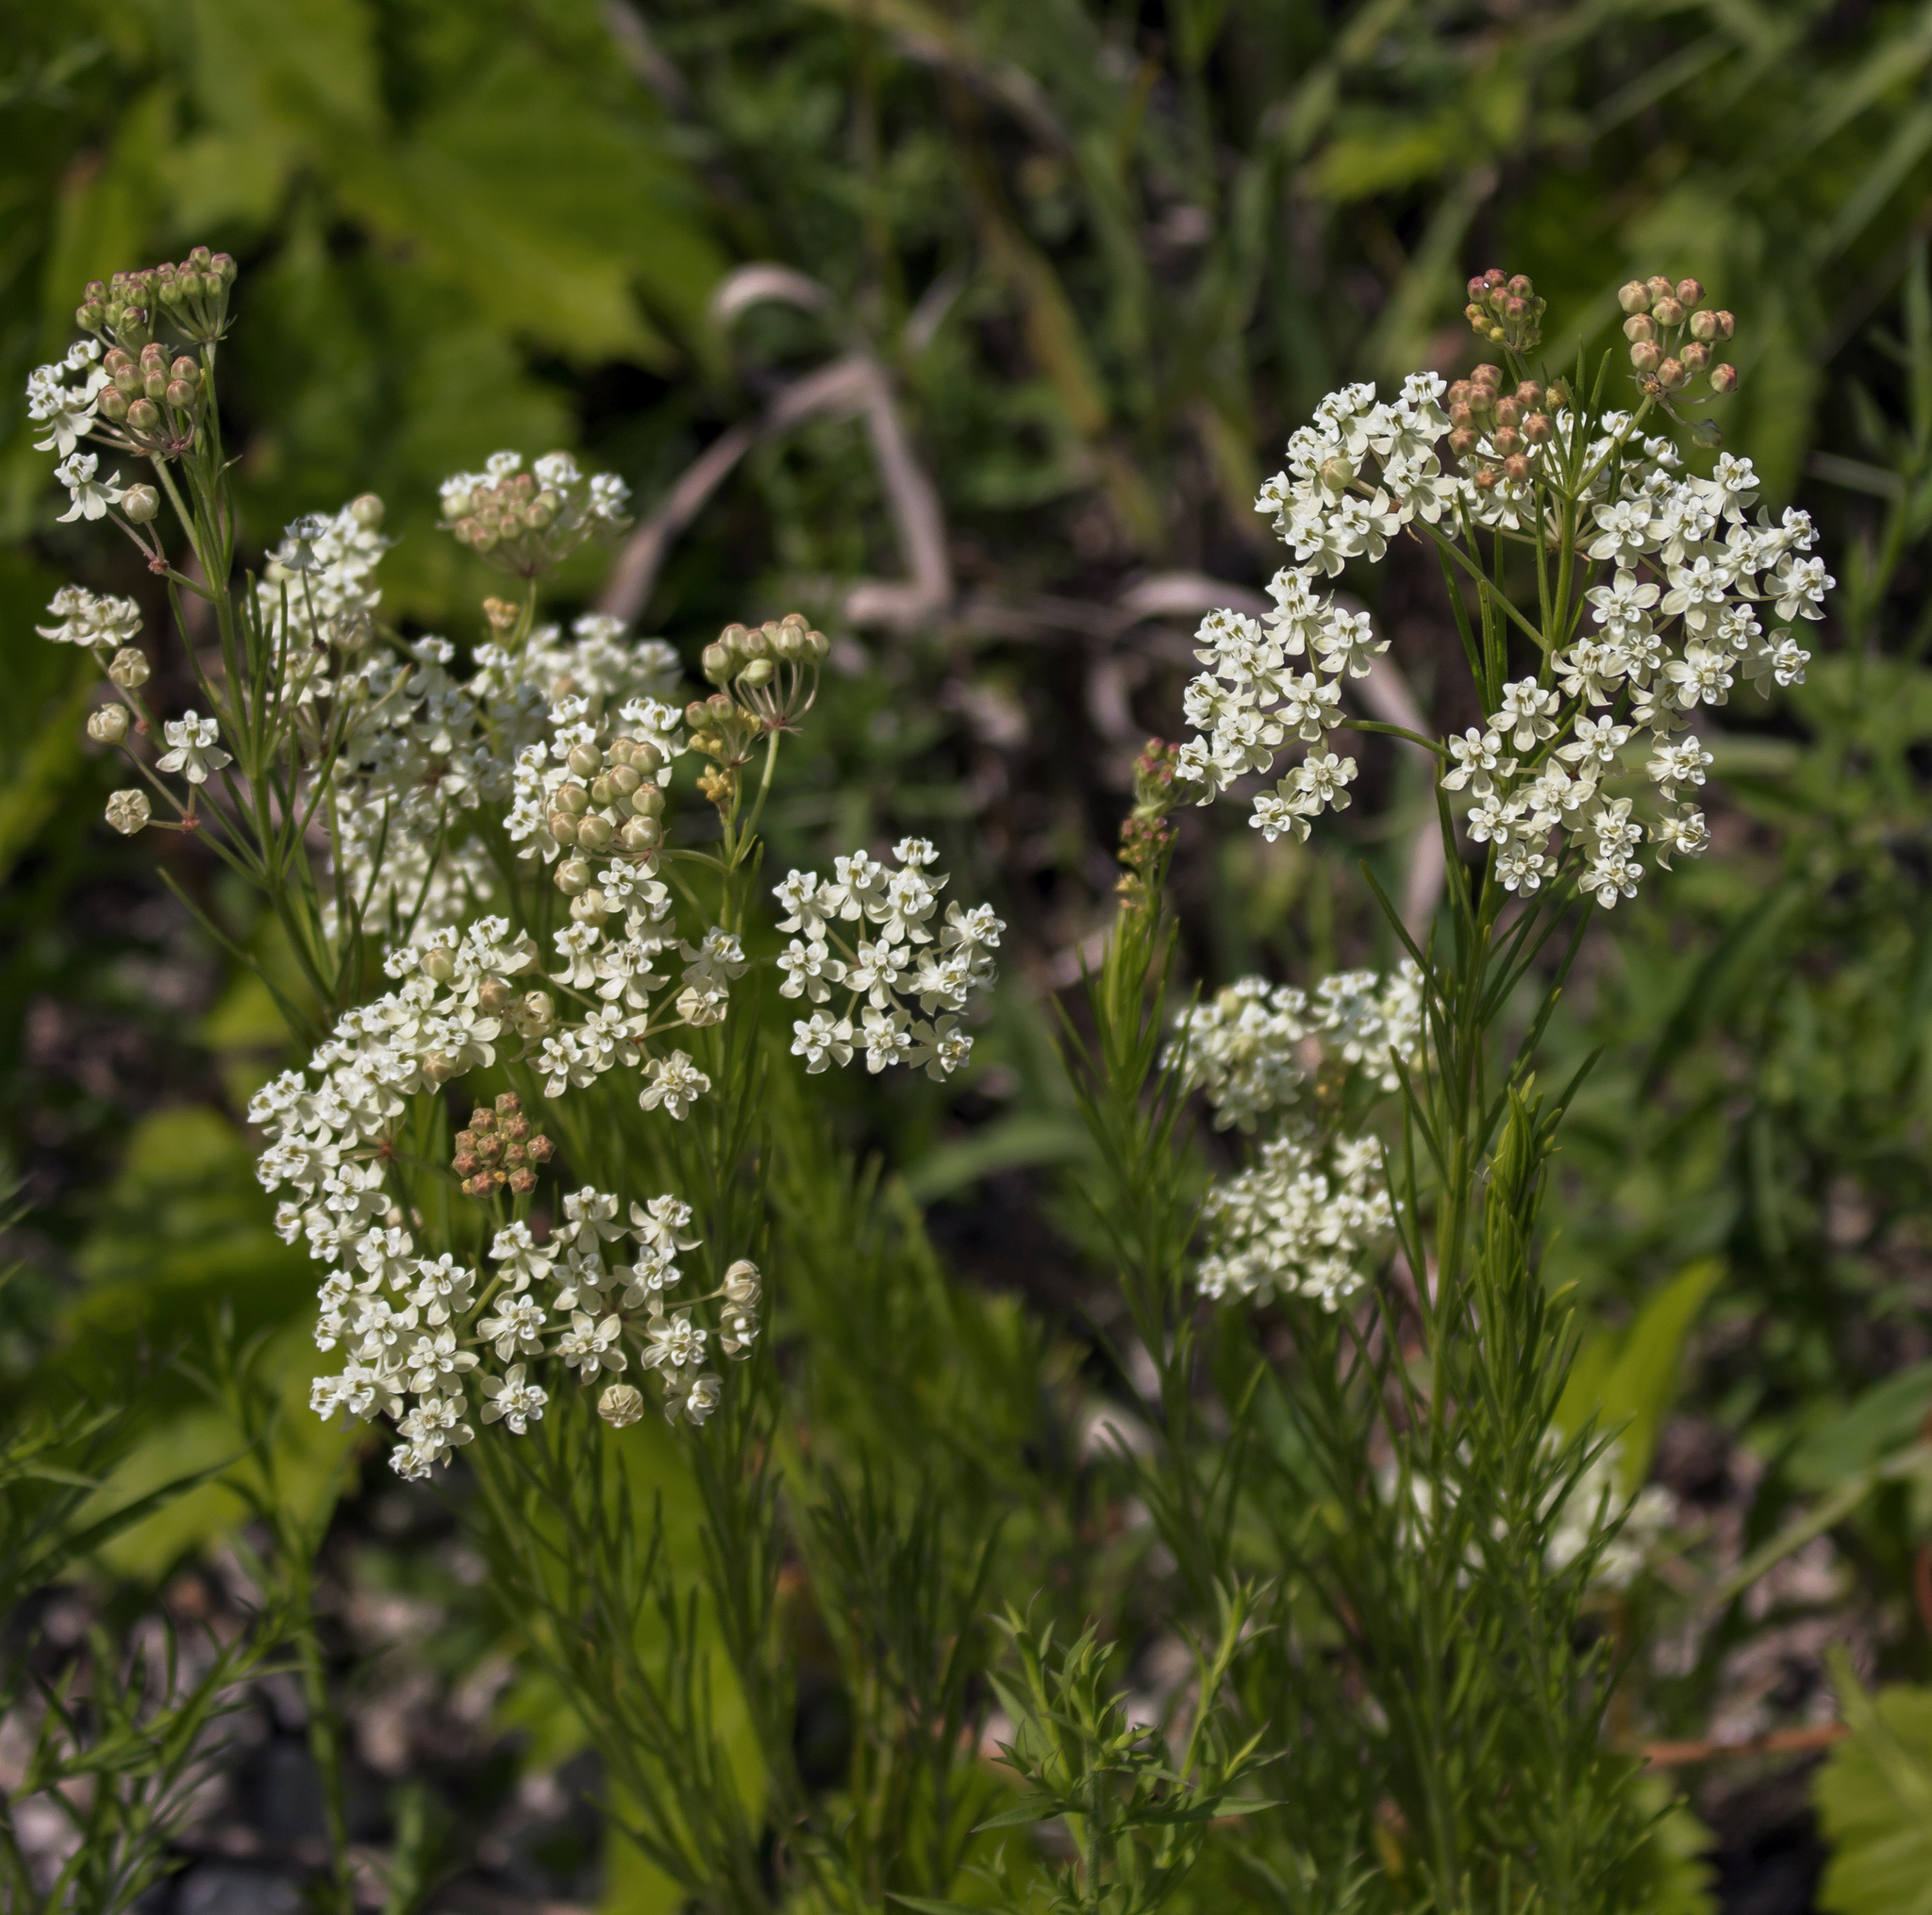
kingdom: Plantae
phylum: Tracheophyta
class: Magnoliopsida
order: Gentianales
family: Apocynaceae
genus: Asclepias
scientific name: Asclepias verticillata
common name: Eastern whorled milkweed
